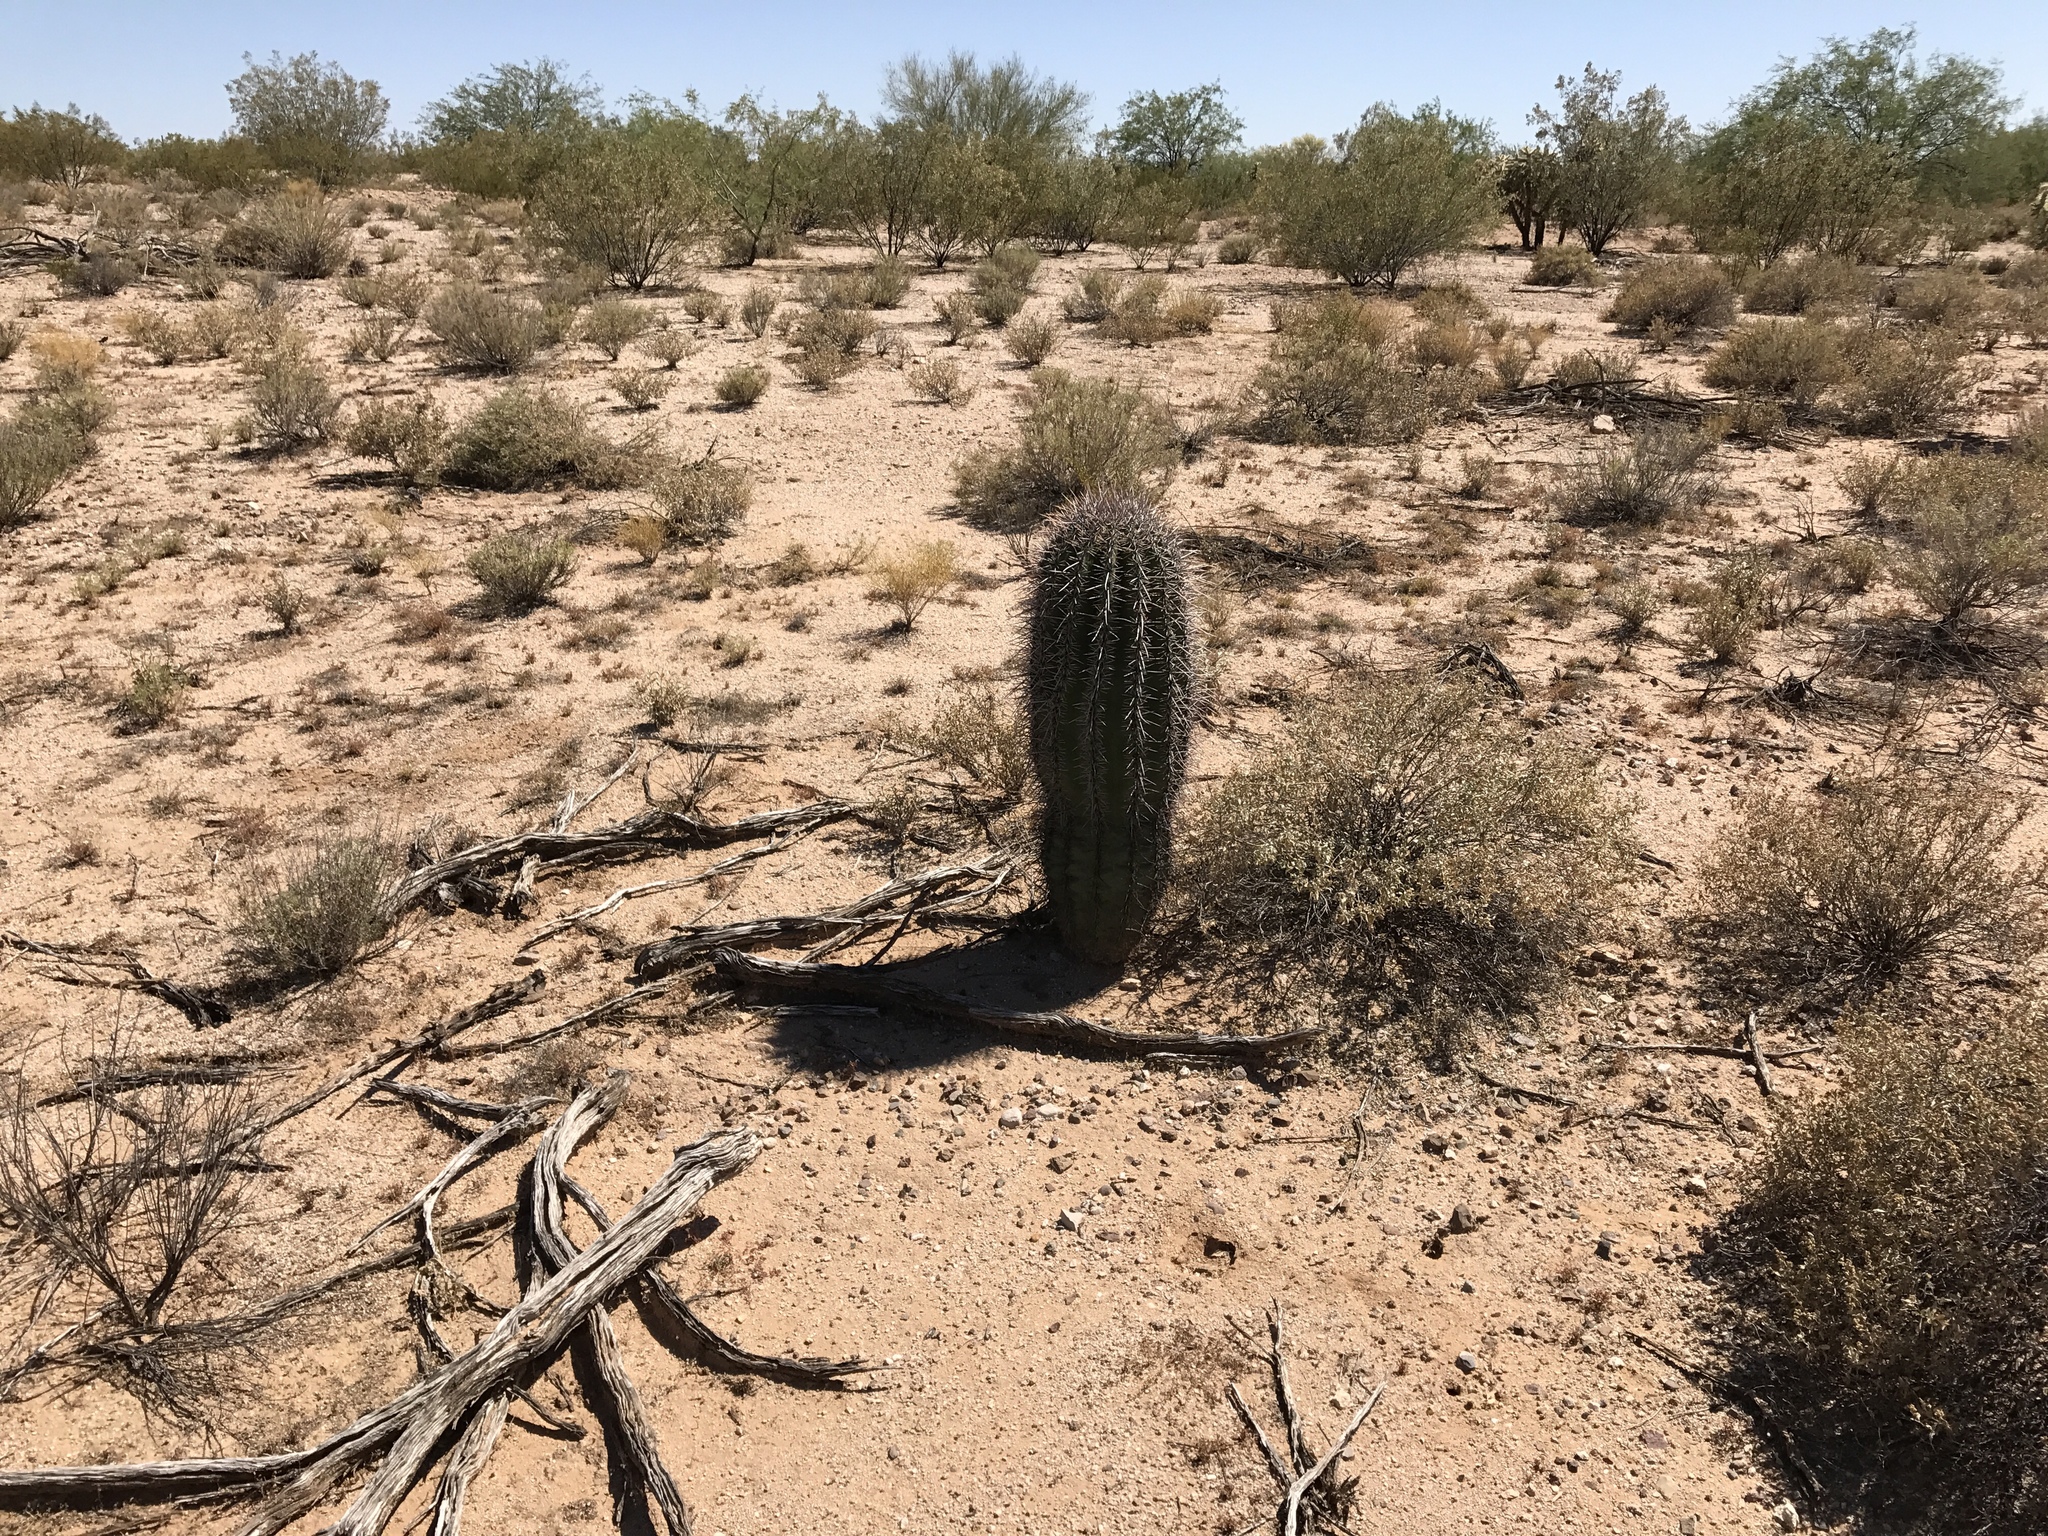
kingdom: Plantae
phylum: Tracheophyta
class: Magnoliopsida
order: Caryophyllales
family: Cactaceae
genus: Carnegiea
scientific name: Carnegiea gigantea
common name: Saguaro
